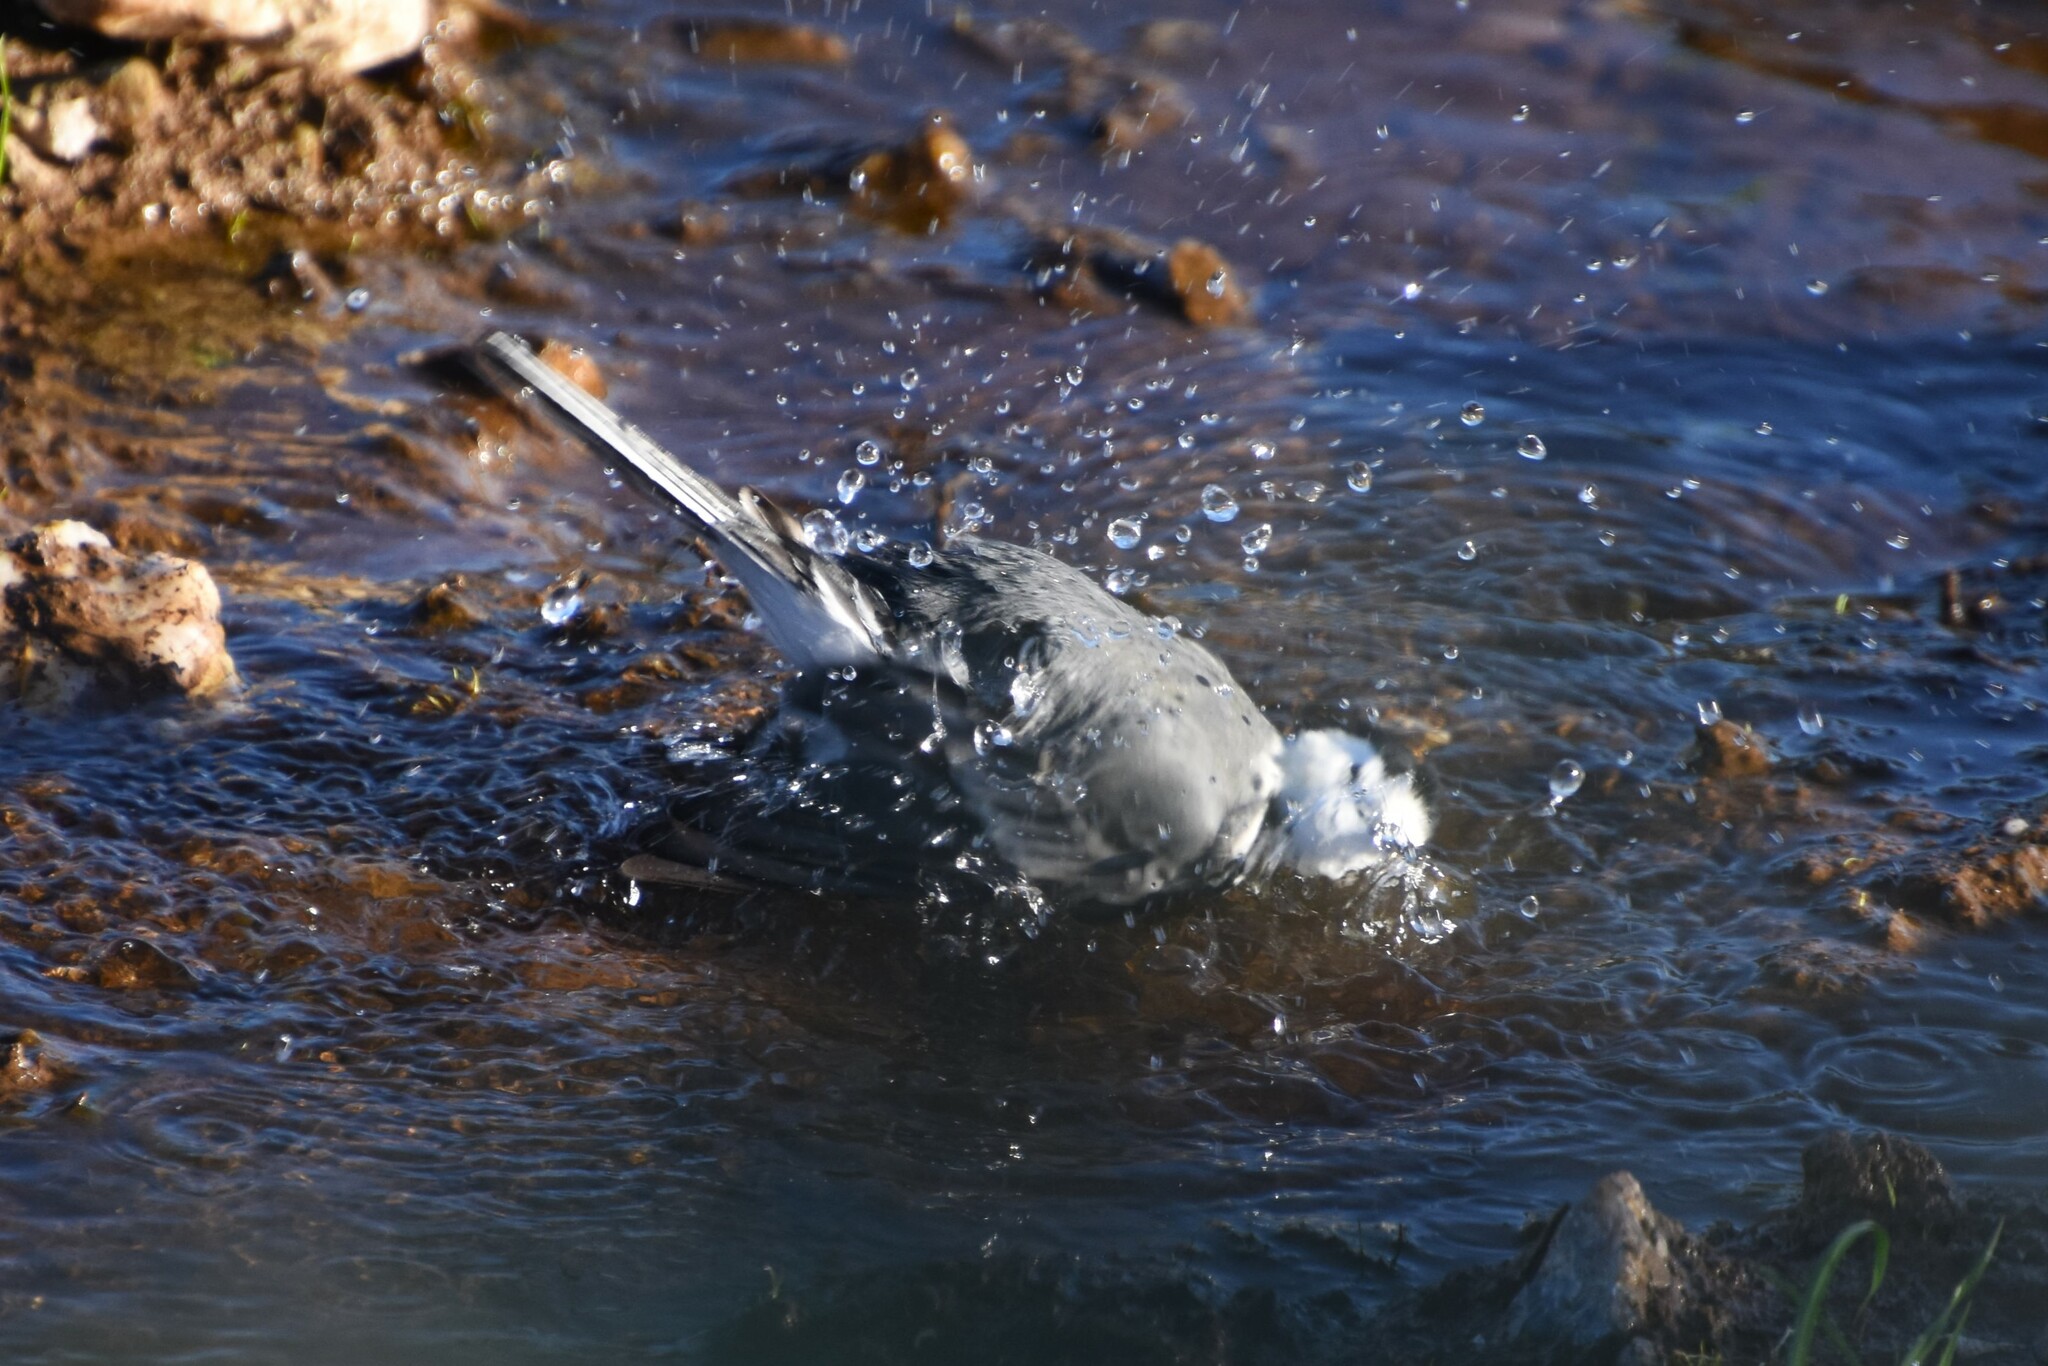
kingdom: Animalia
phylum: Chordata
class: Aves
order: Passeriformes
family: Motacillidae
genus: Motacilla
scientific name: Motacilla alba
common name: White wagtail
